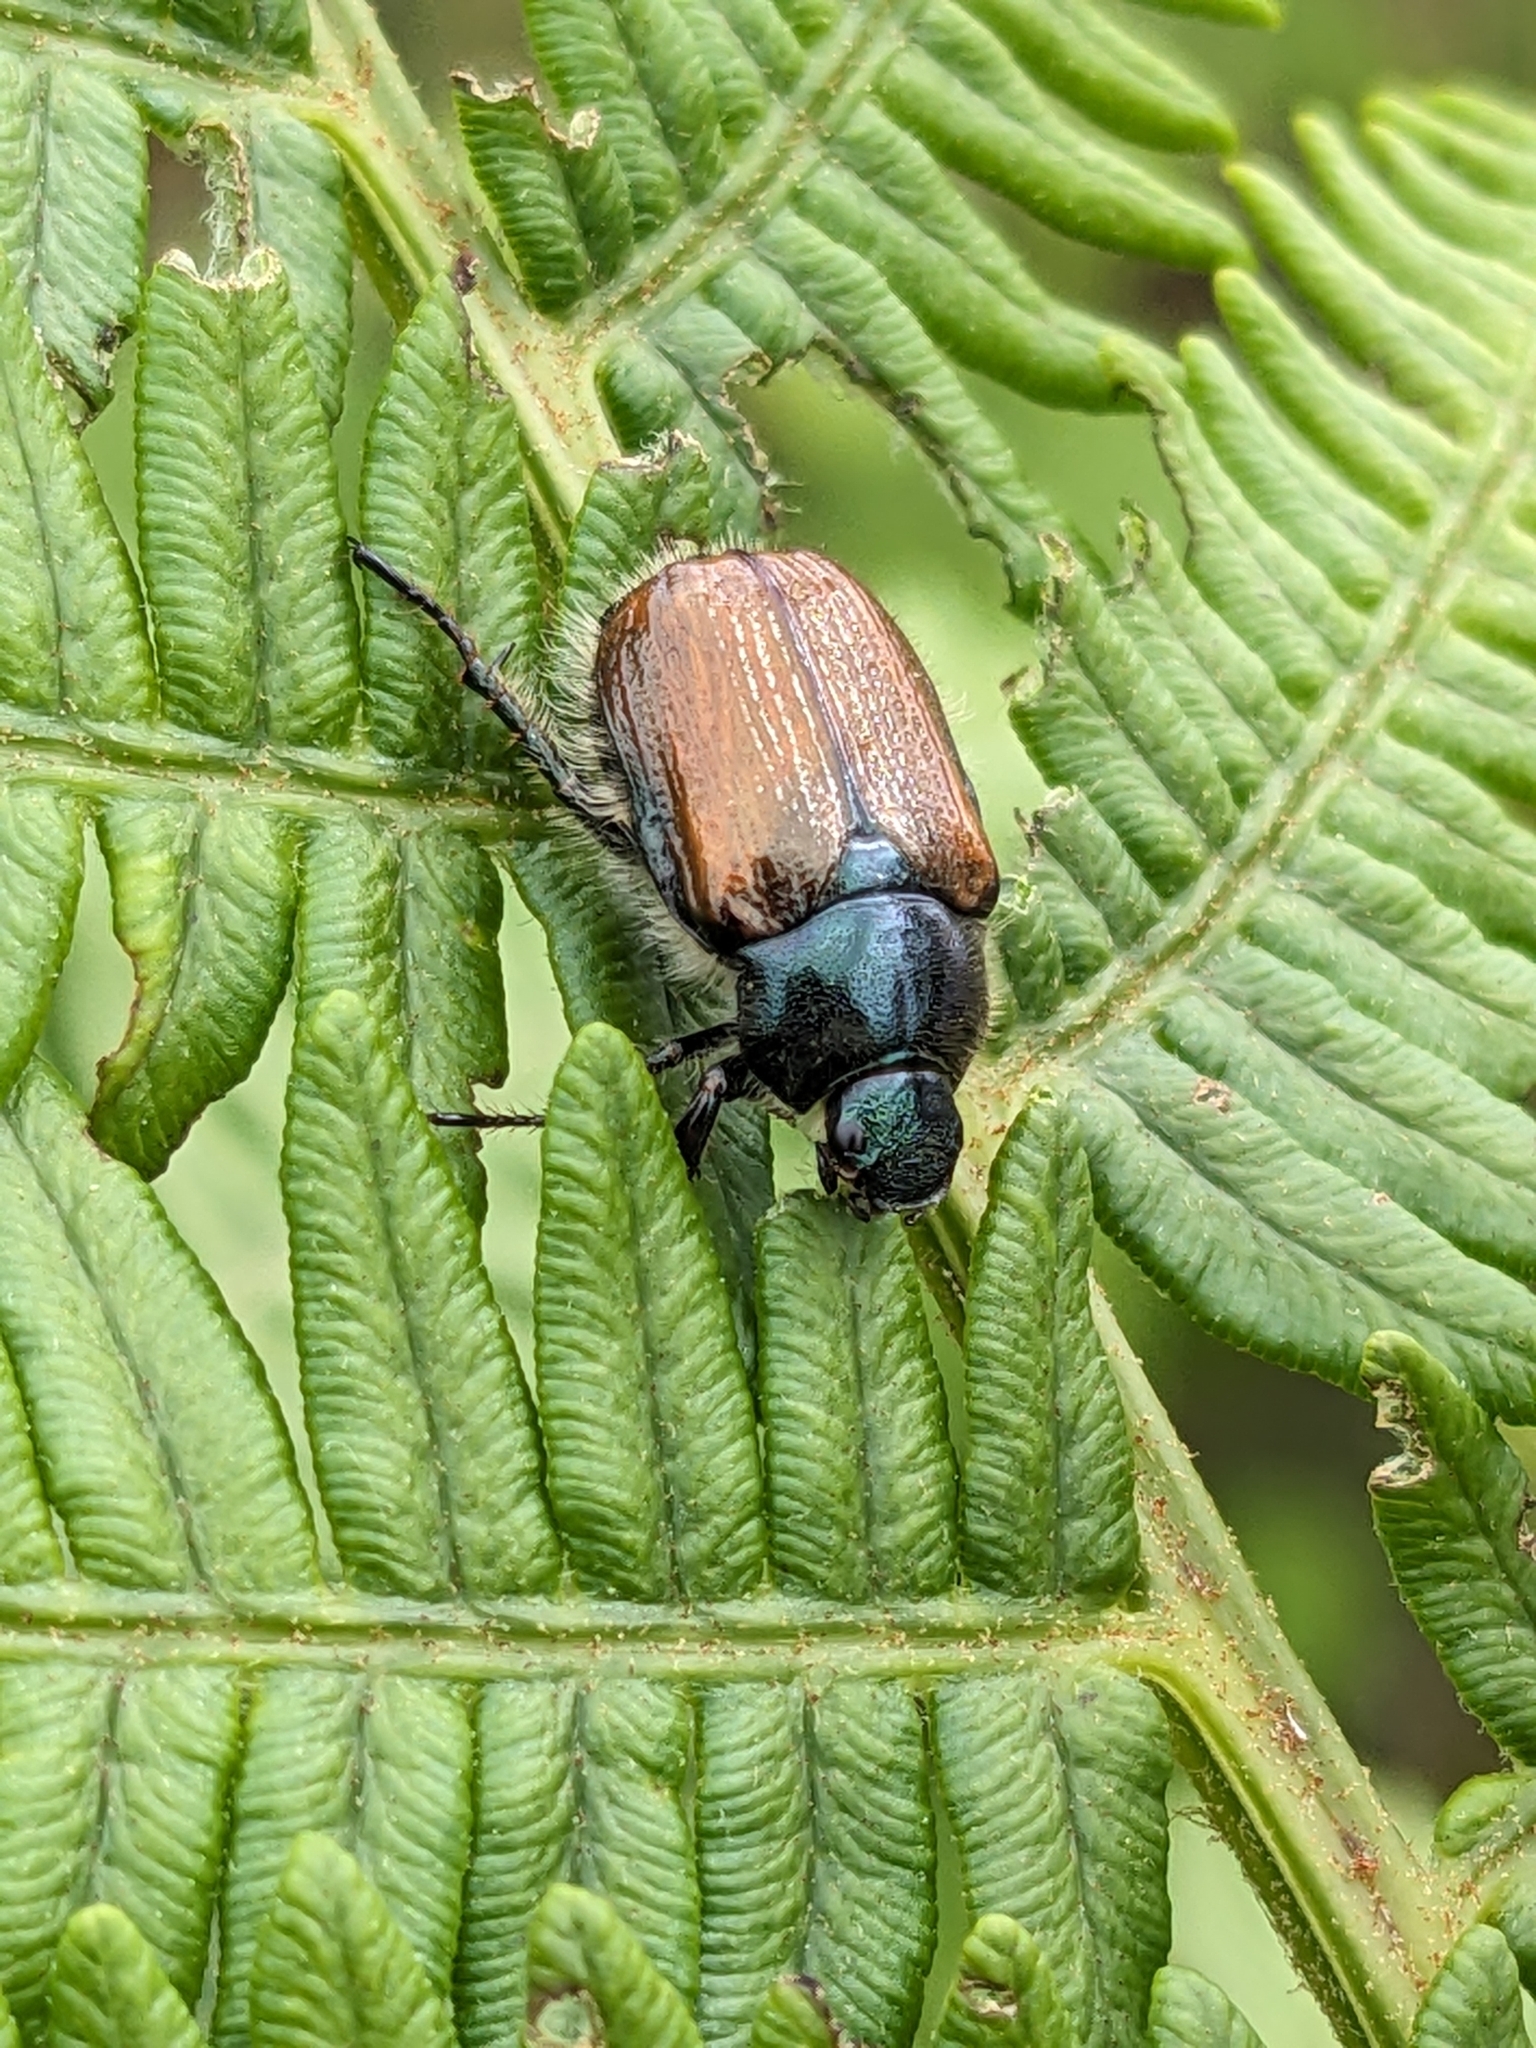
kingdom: Animalia
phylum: Arthropoda
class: Insecta
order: Coleoptera
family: Scarabaeidae
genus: Phyllopertha
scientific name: Phyllopertha horticola
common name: Garden chafer
